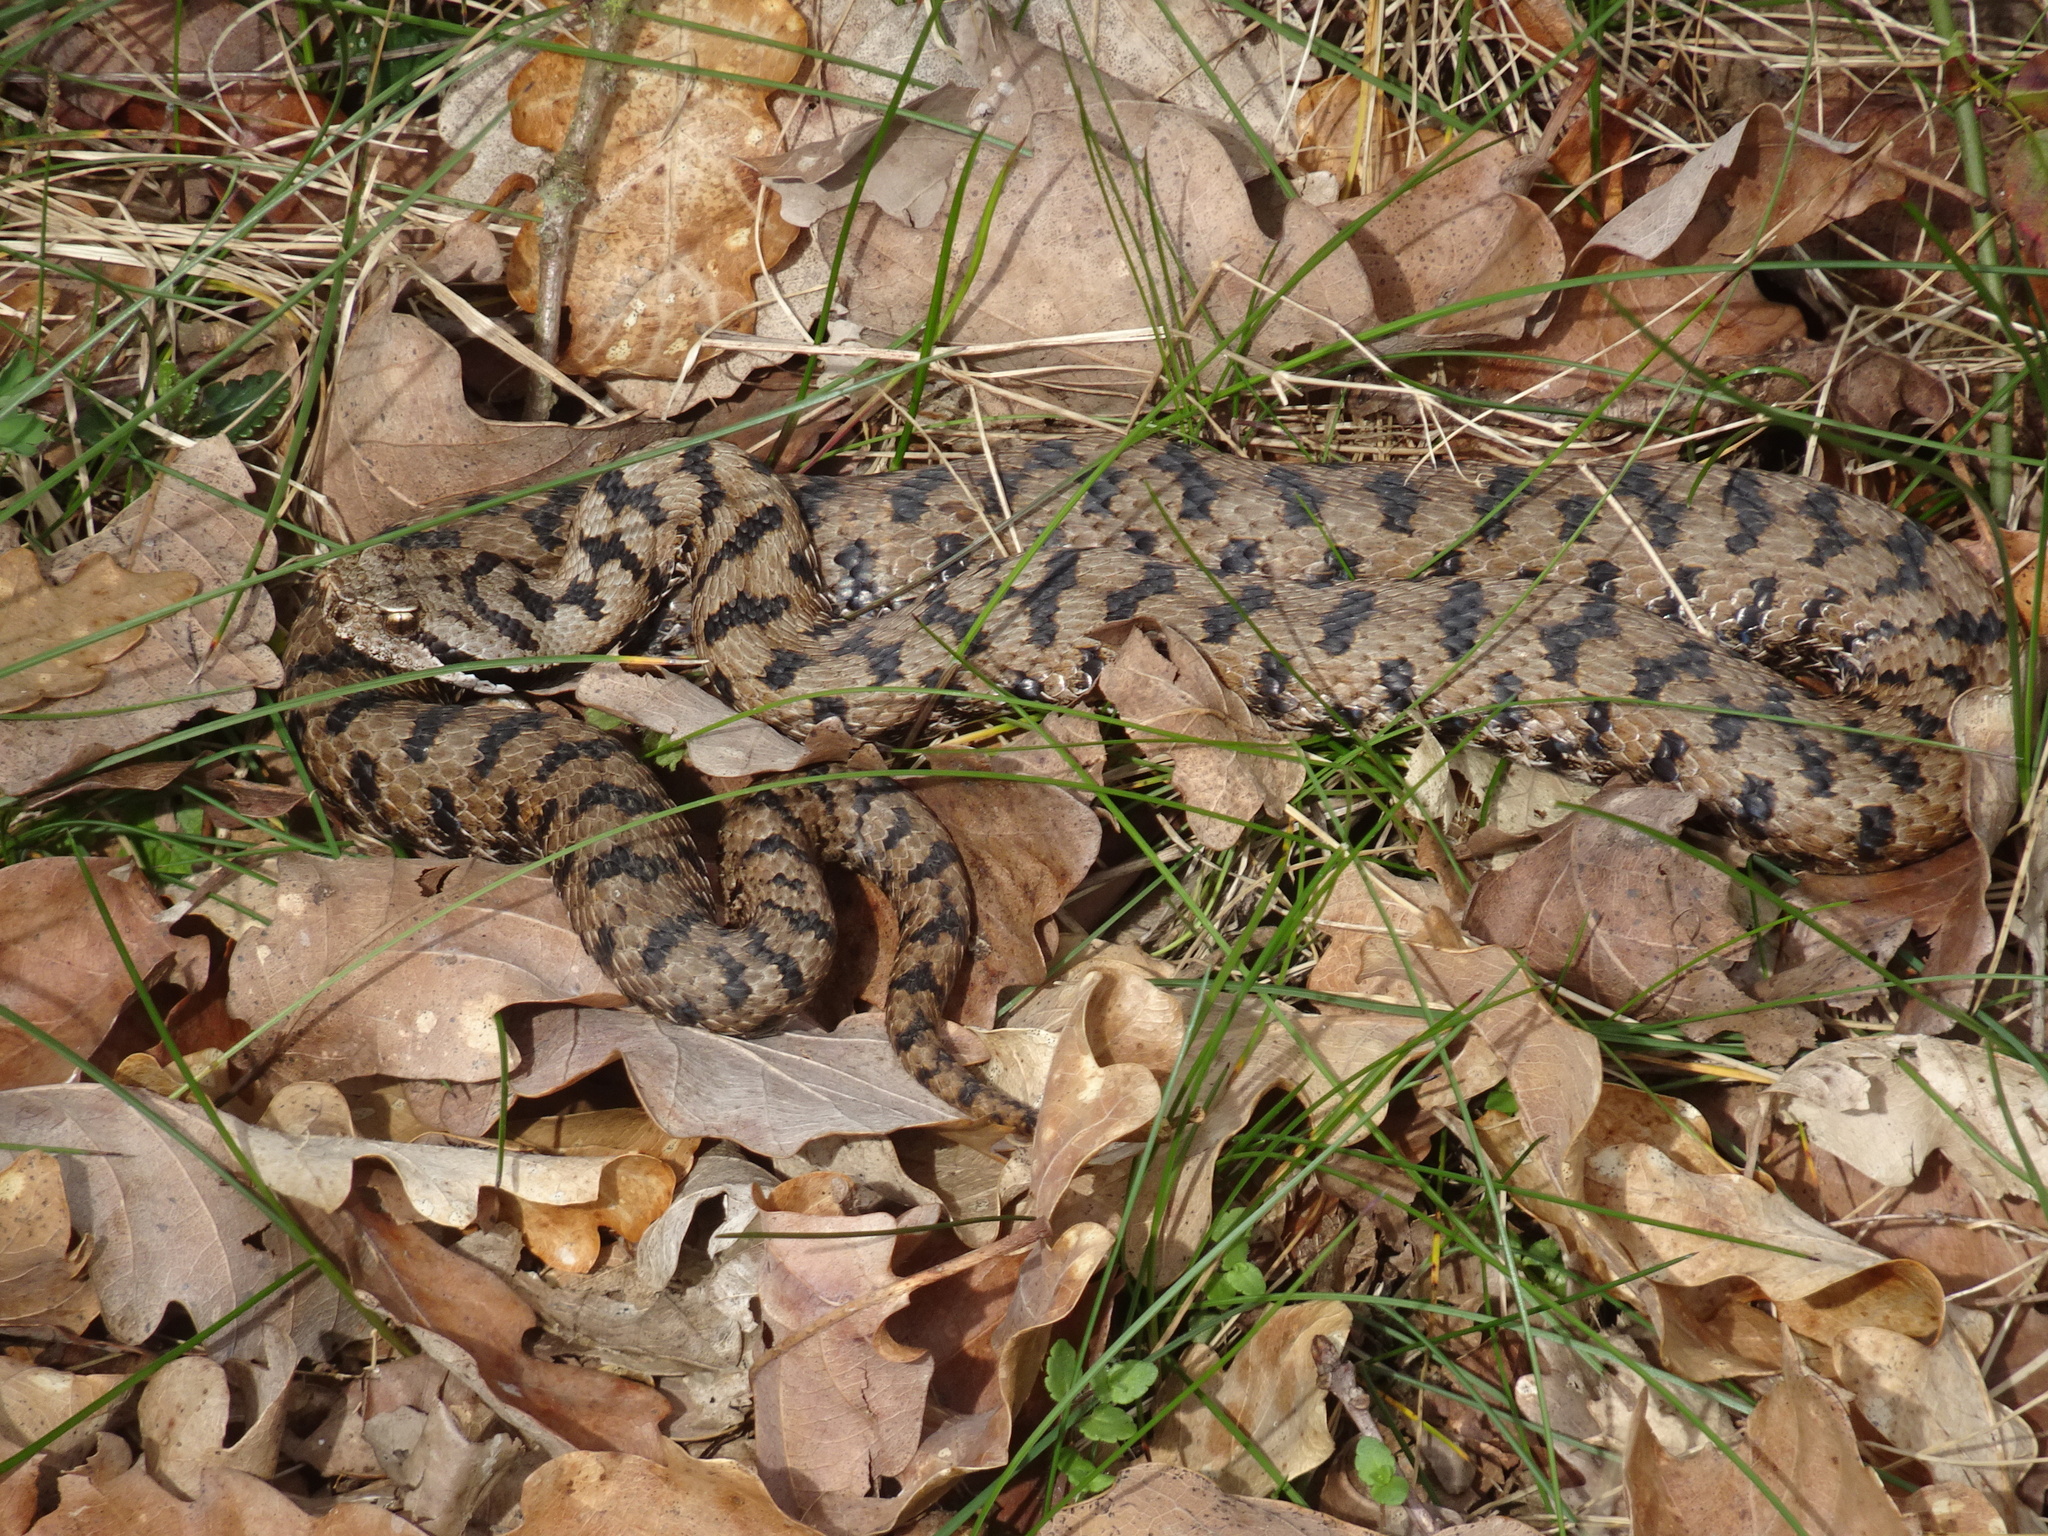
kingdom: Animalia
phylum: Chordata
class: Squamata
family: Viperidae
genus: Vipera
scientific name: Vipera aspis
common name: Asp viper
